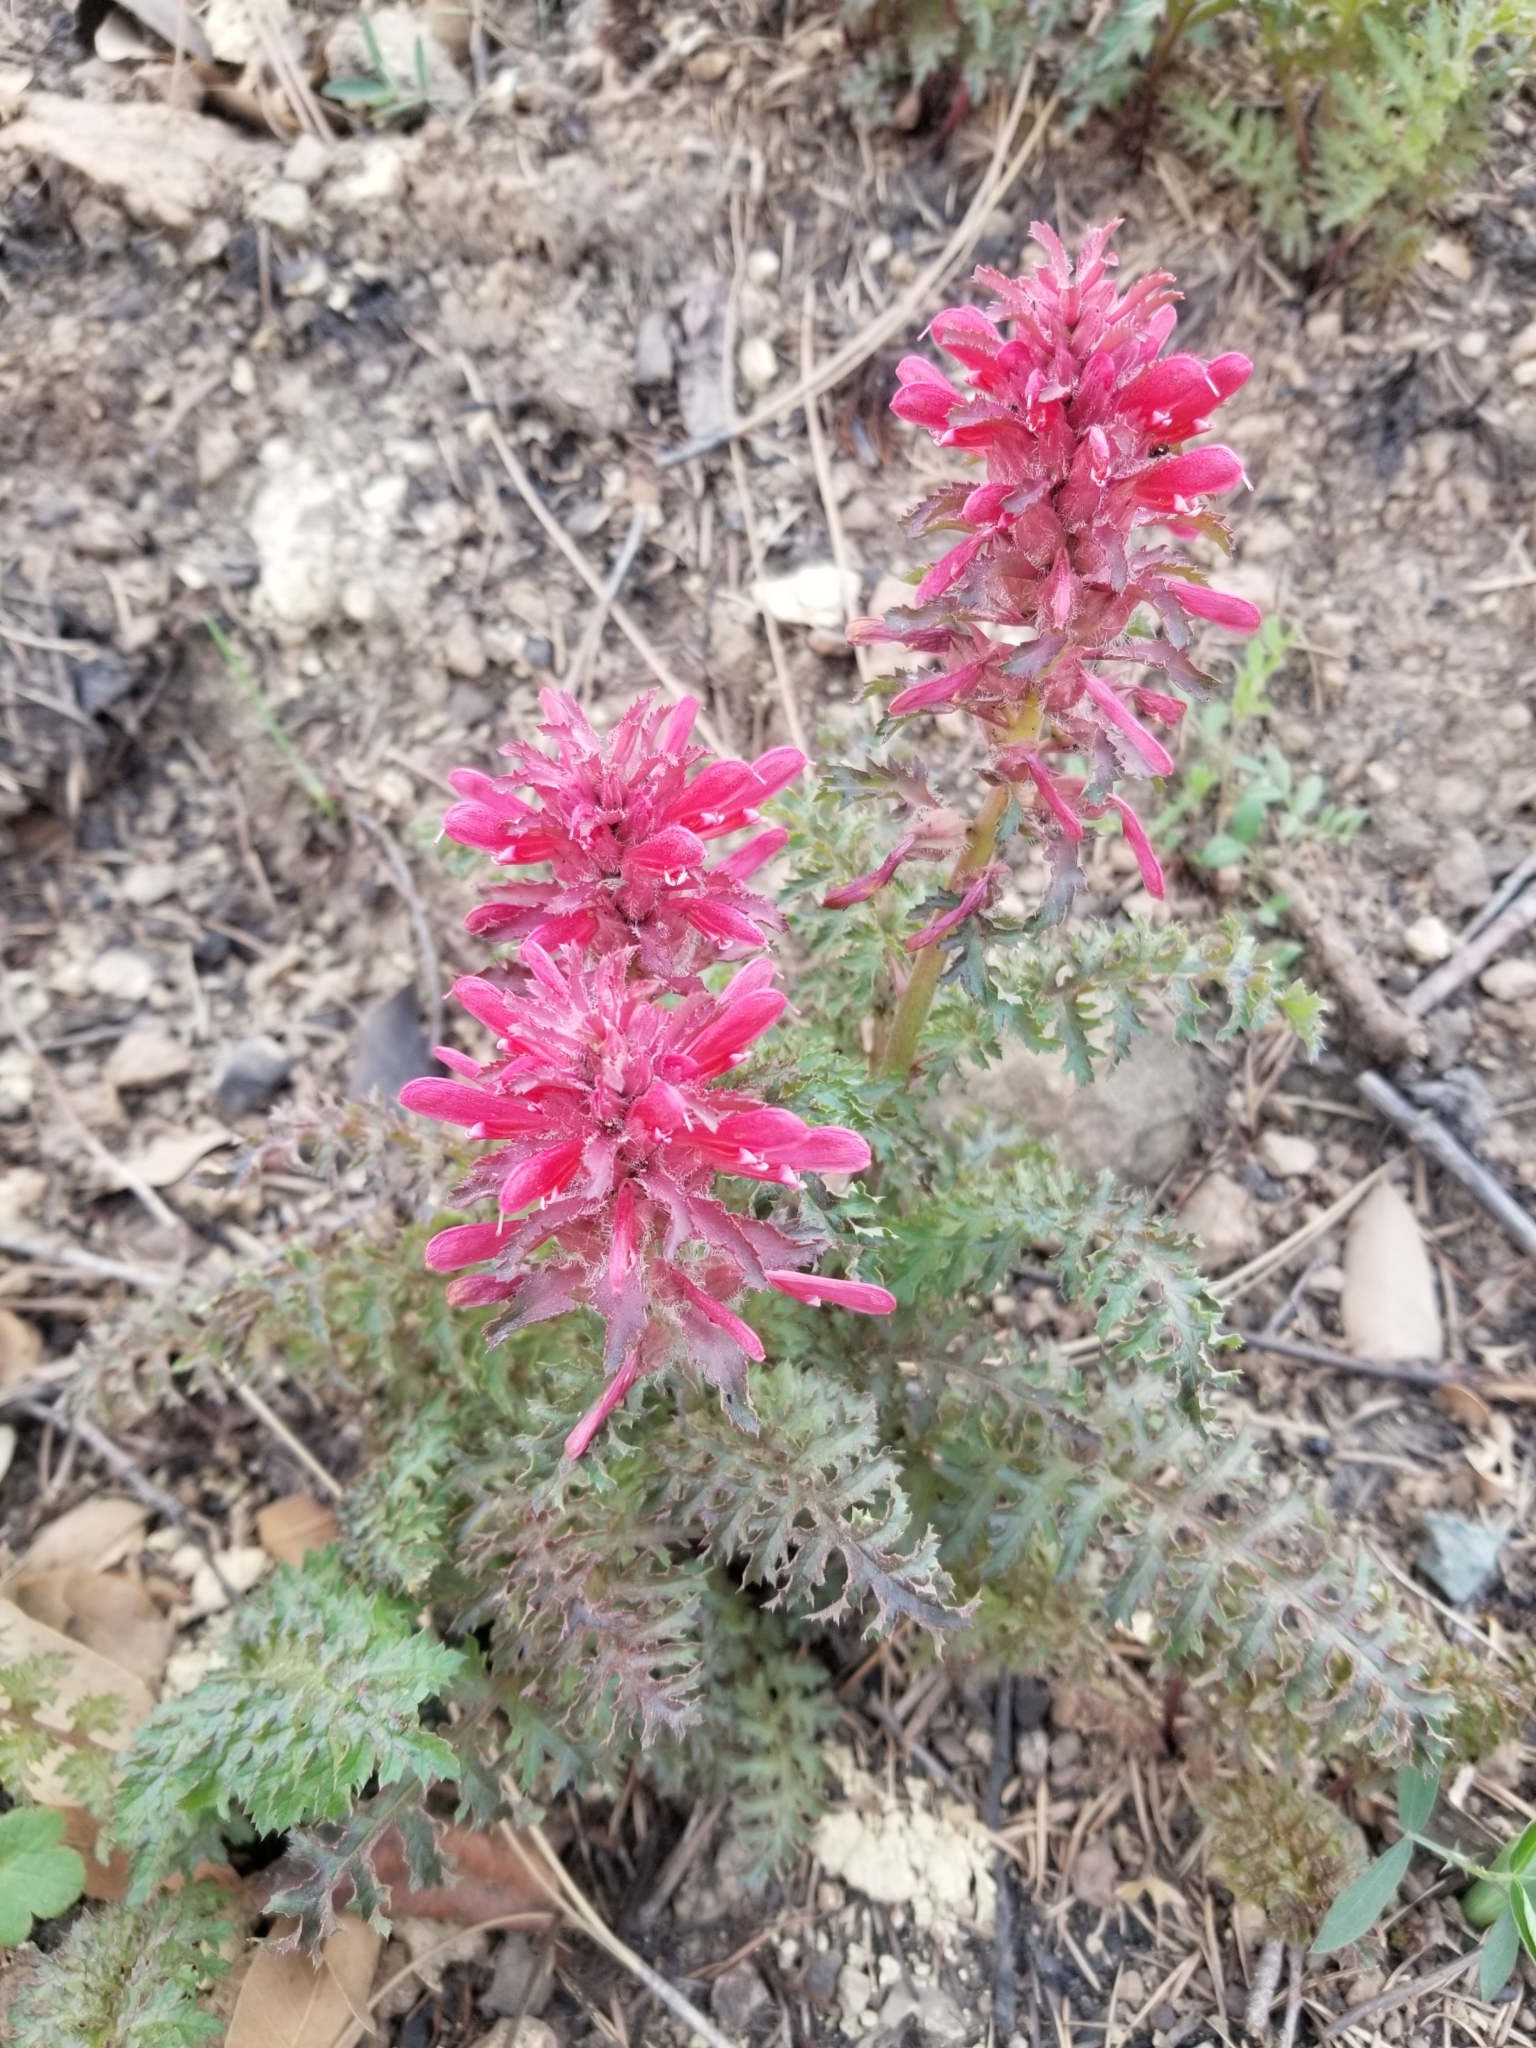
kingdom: Plantae
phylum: Tracheophyta
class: Magnoliopsida
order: Lamiales
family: Orobanchaceae
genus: Pedicularis
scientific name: Pedicularis densiflora
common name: Indian warrior
